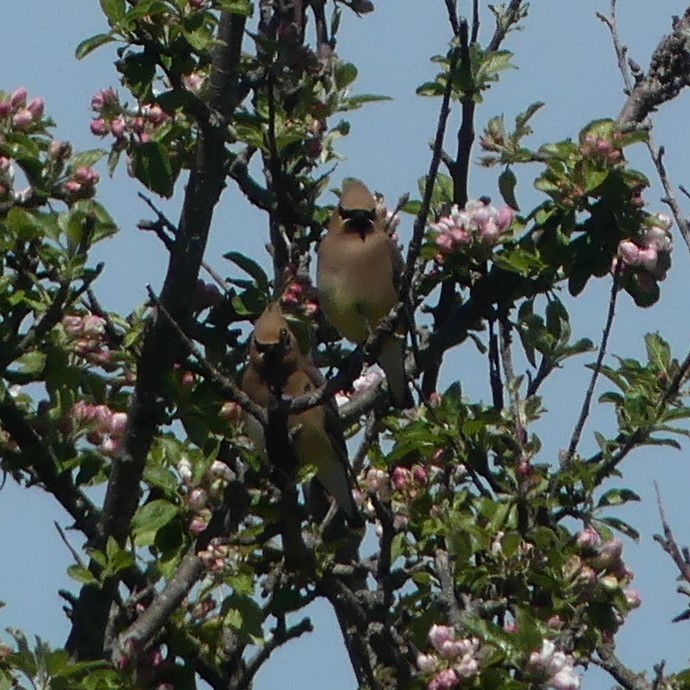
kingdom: Animalia
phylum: Chordata
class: Aves
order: Passeriformes
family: Bombycillidae
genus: Bombycilla
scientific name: Bombycilla cedrorum
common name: Cedar waxwing
